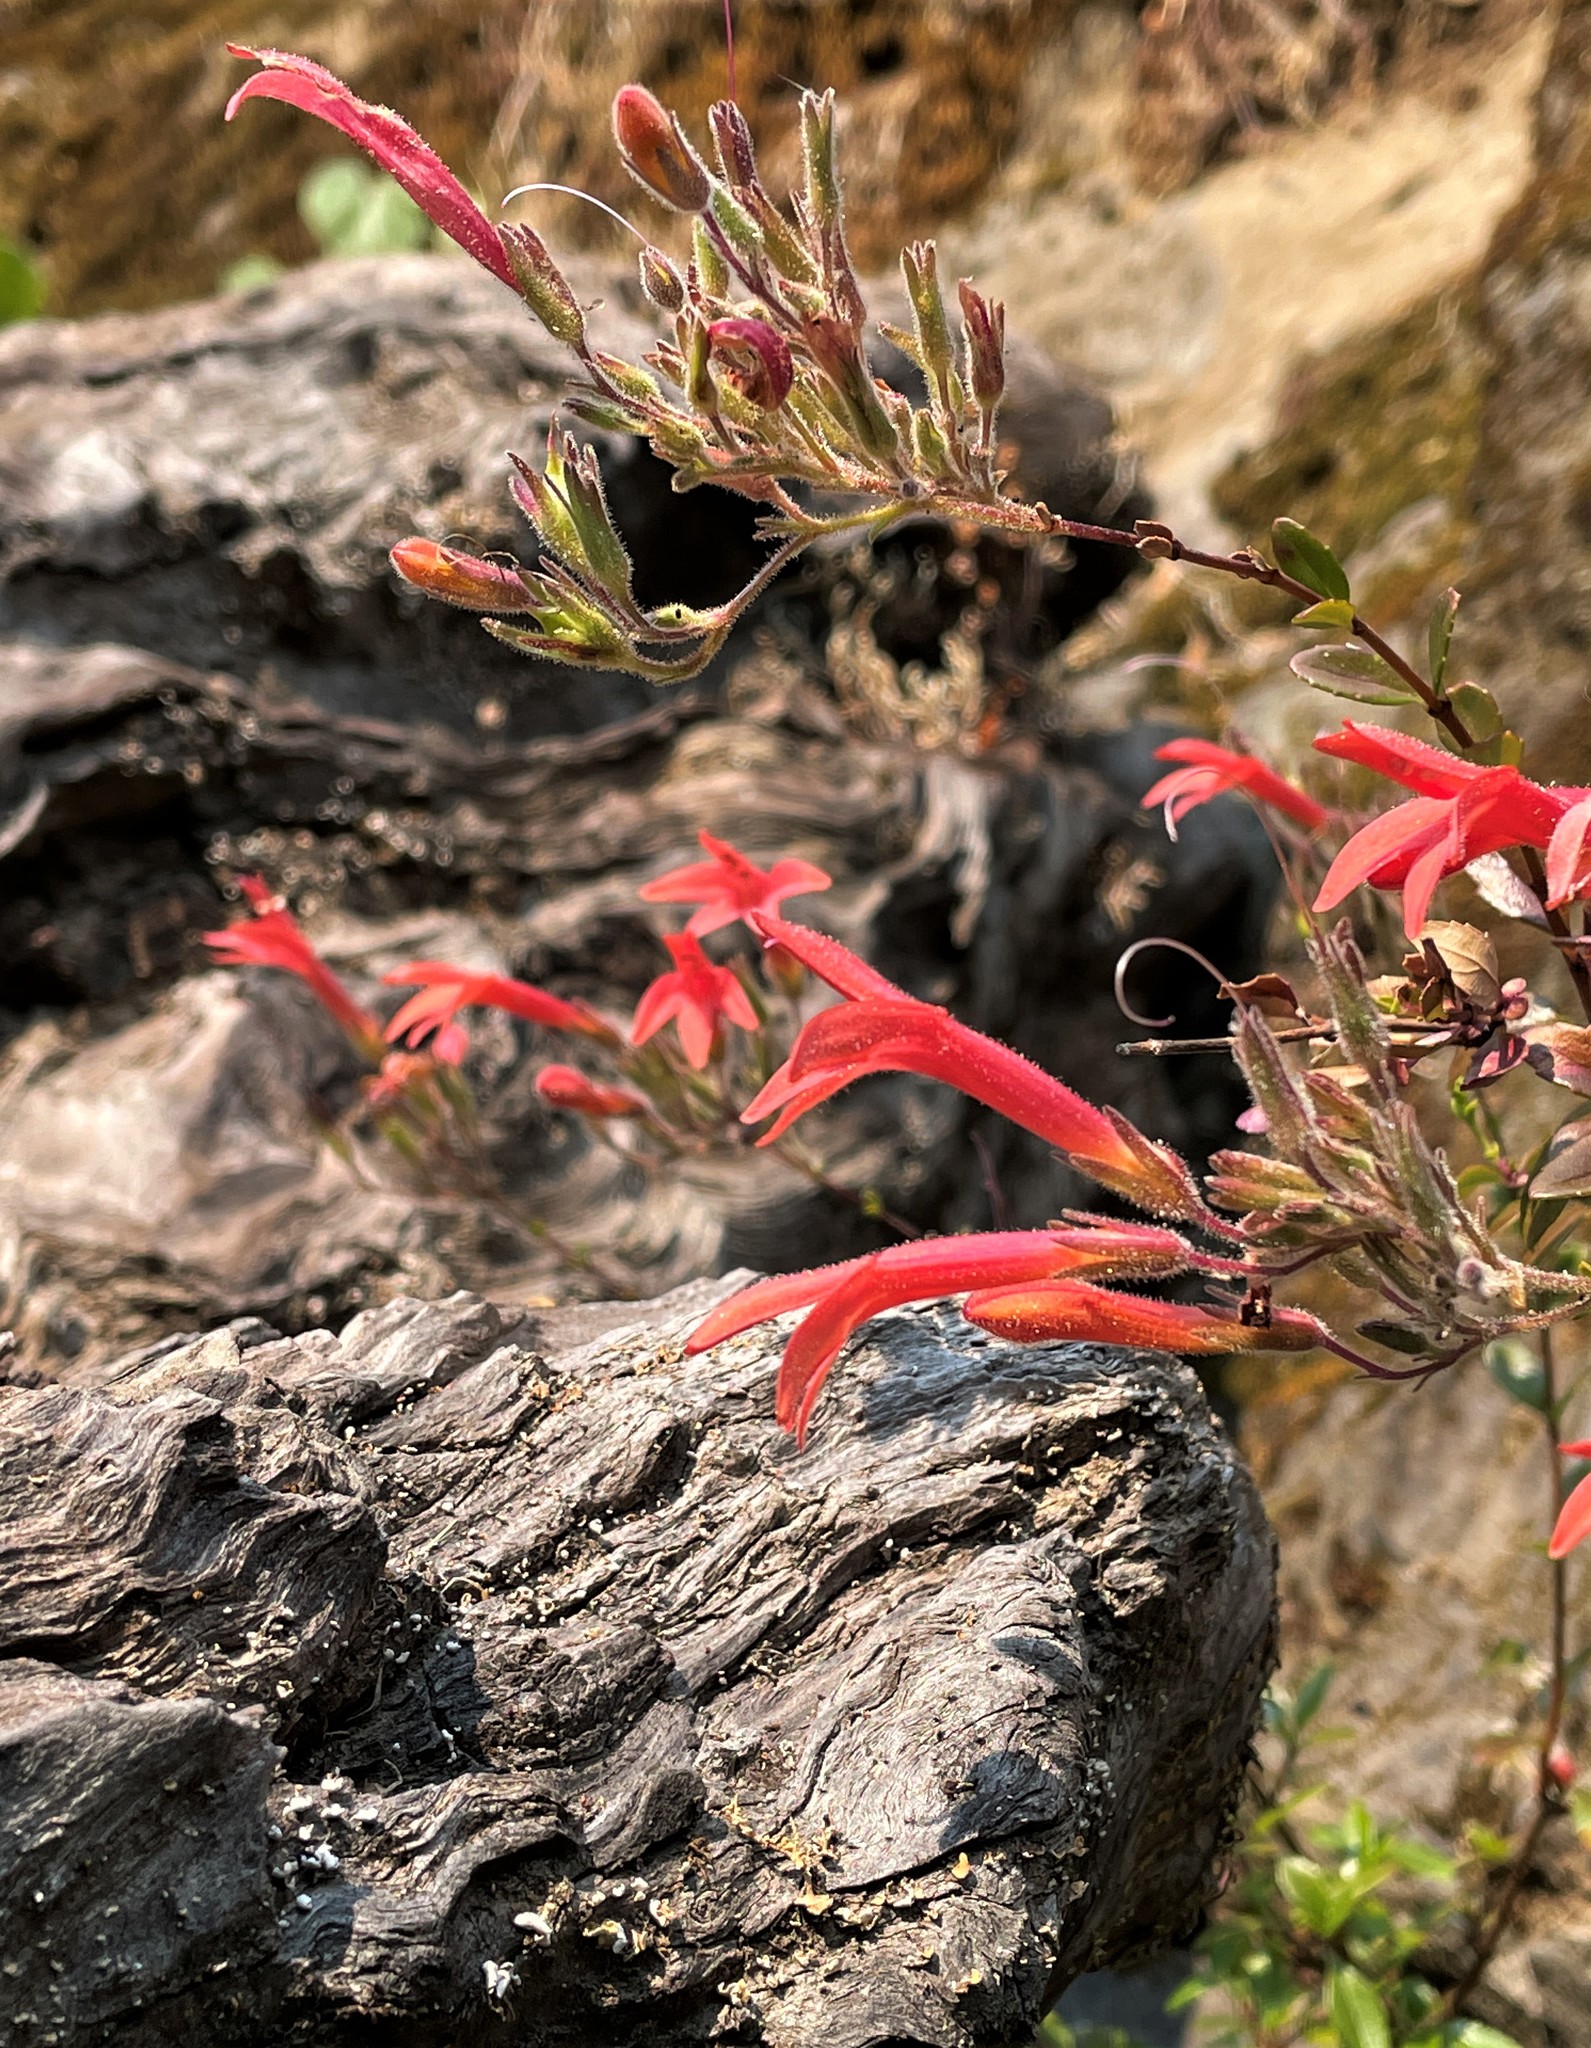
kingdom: Plantae
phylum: Tracheophyta
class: Magnoliopsida
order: Lamiales
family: Plantaginaceae
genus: Keckiella
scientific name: Keckiella corymbosa
